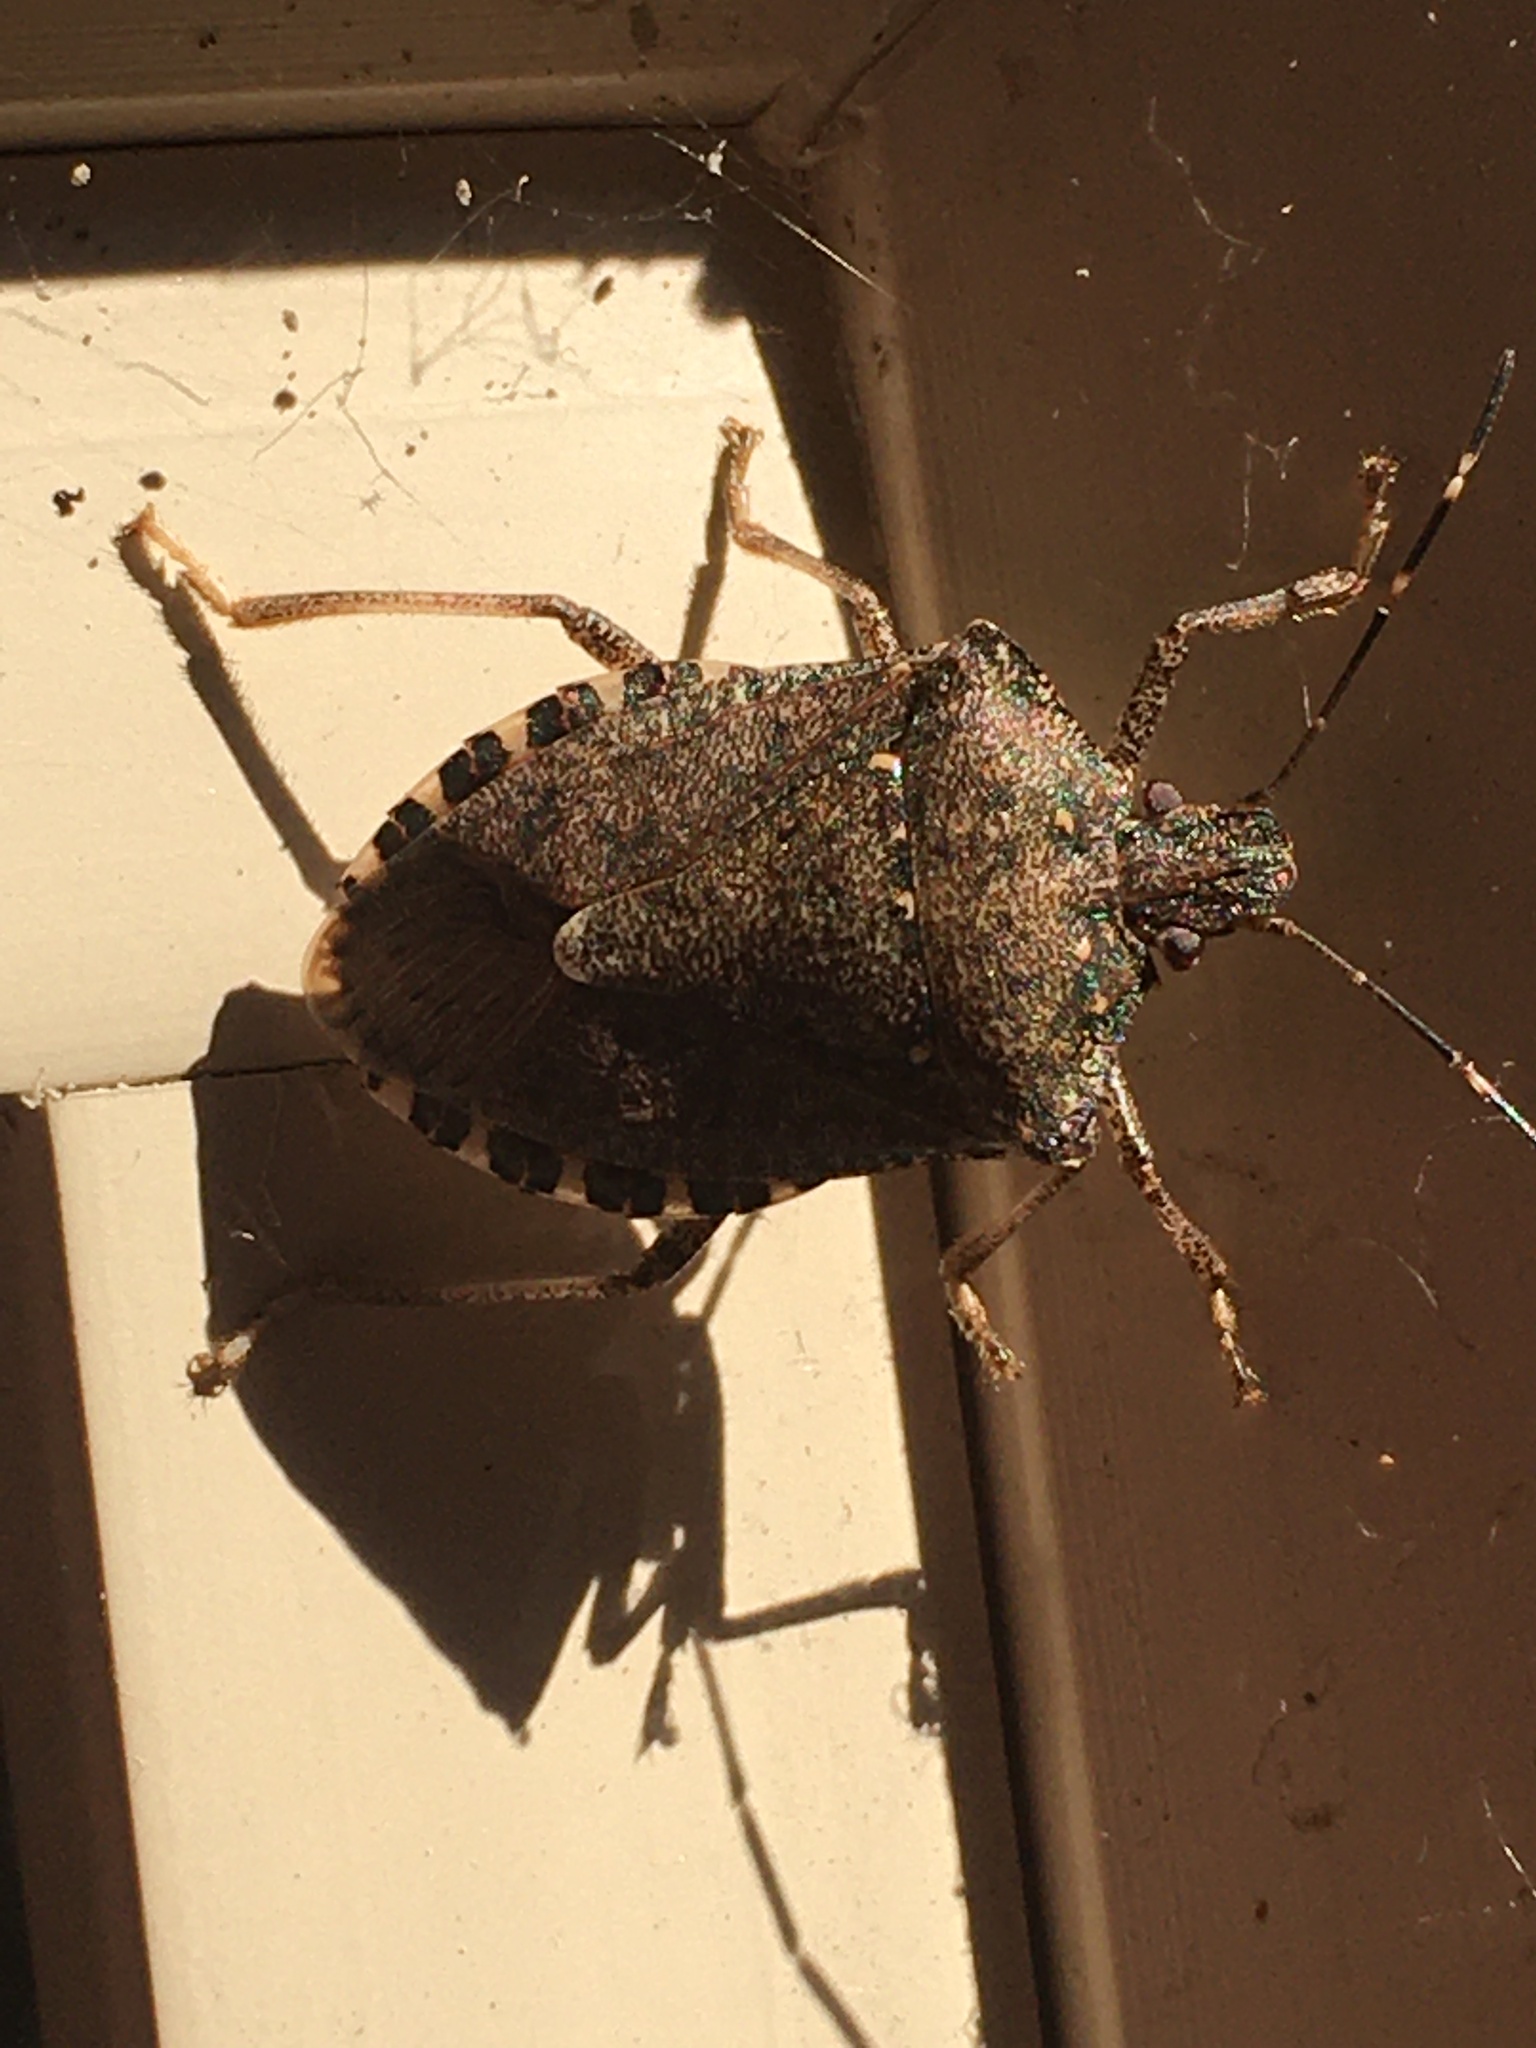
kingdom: Animalia
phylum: Arthropoda
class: Insecta
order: Hemiptera
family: Pentatomidae
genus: Halyomorpha
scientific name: Halyomorpha halys
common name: Brown marmorated stink bug
